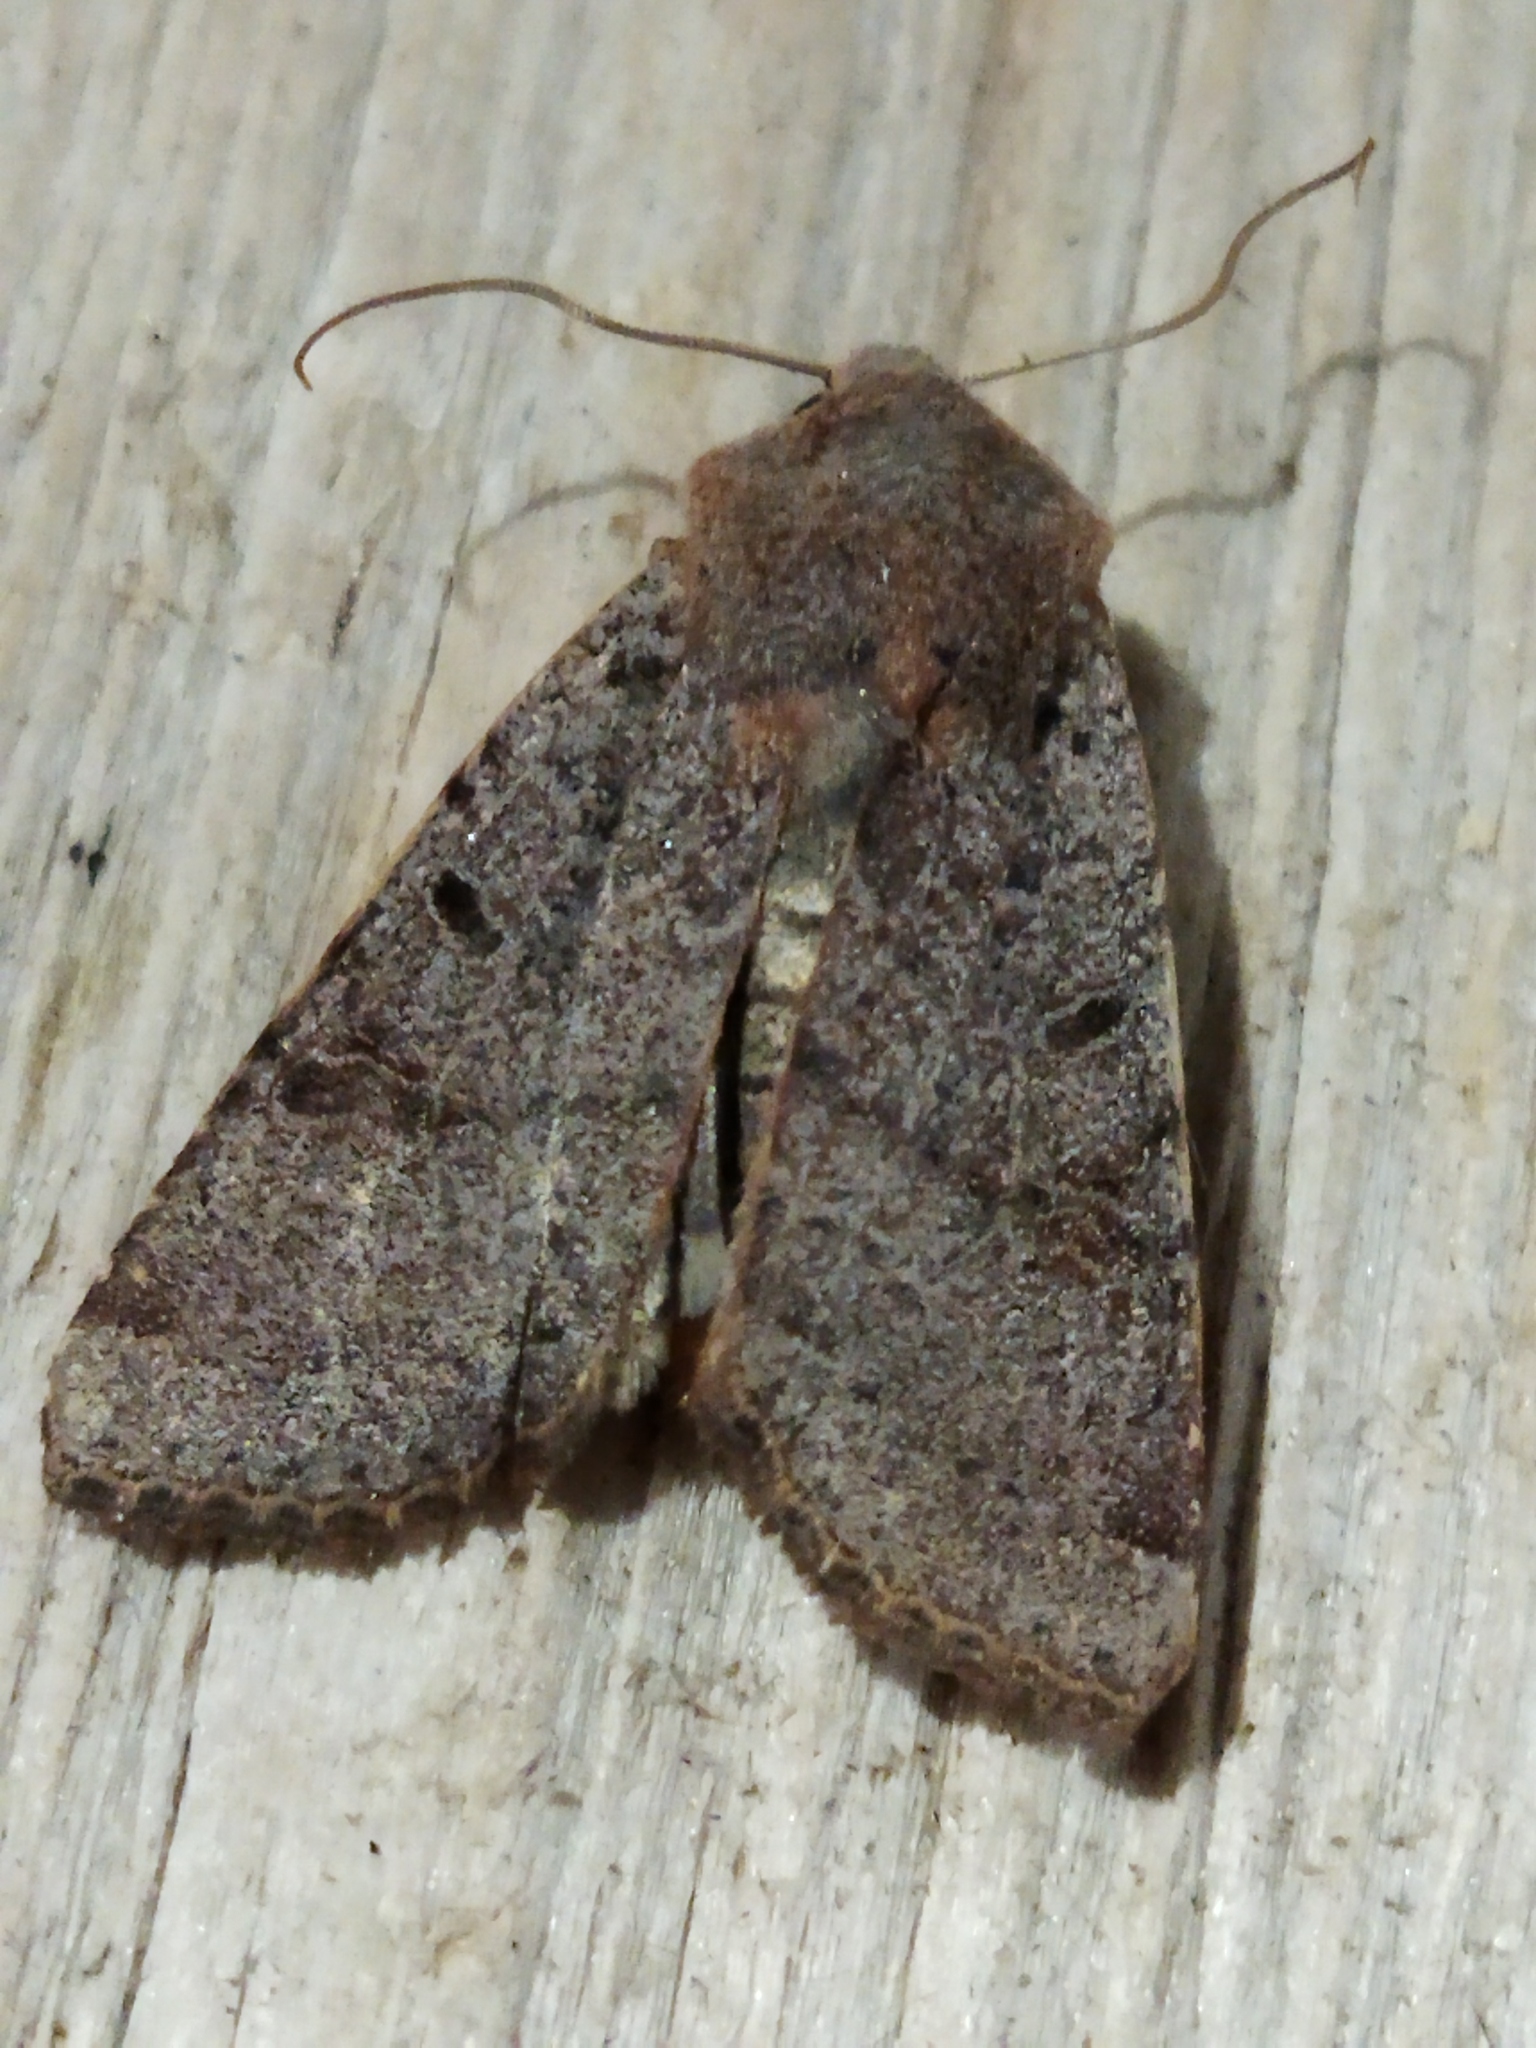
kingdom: Animalia
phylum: Arthropoda
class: Insecta
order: Lepidoptera
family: Noctuidae
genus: Agrochola
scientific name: Agrochola lychnidis
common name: Beaded chestnut
